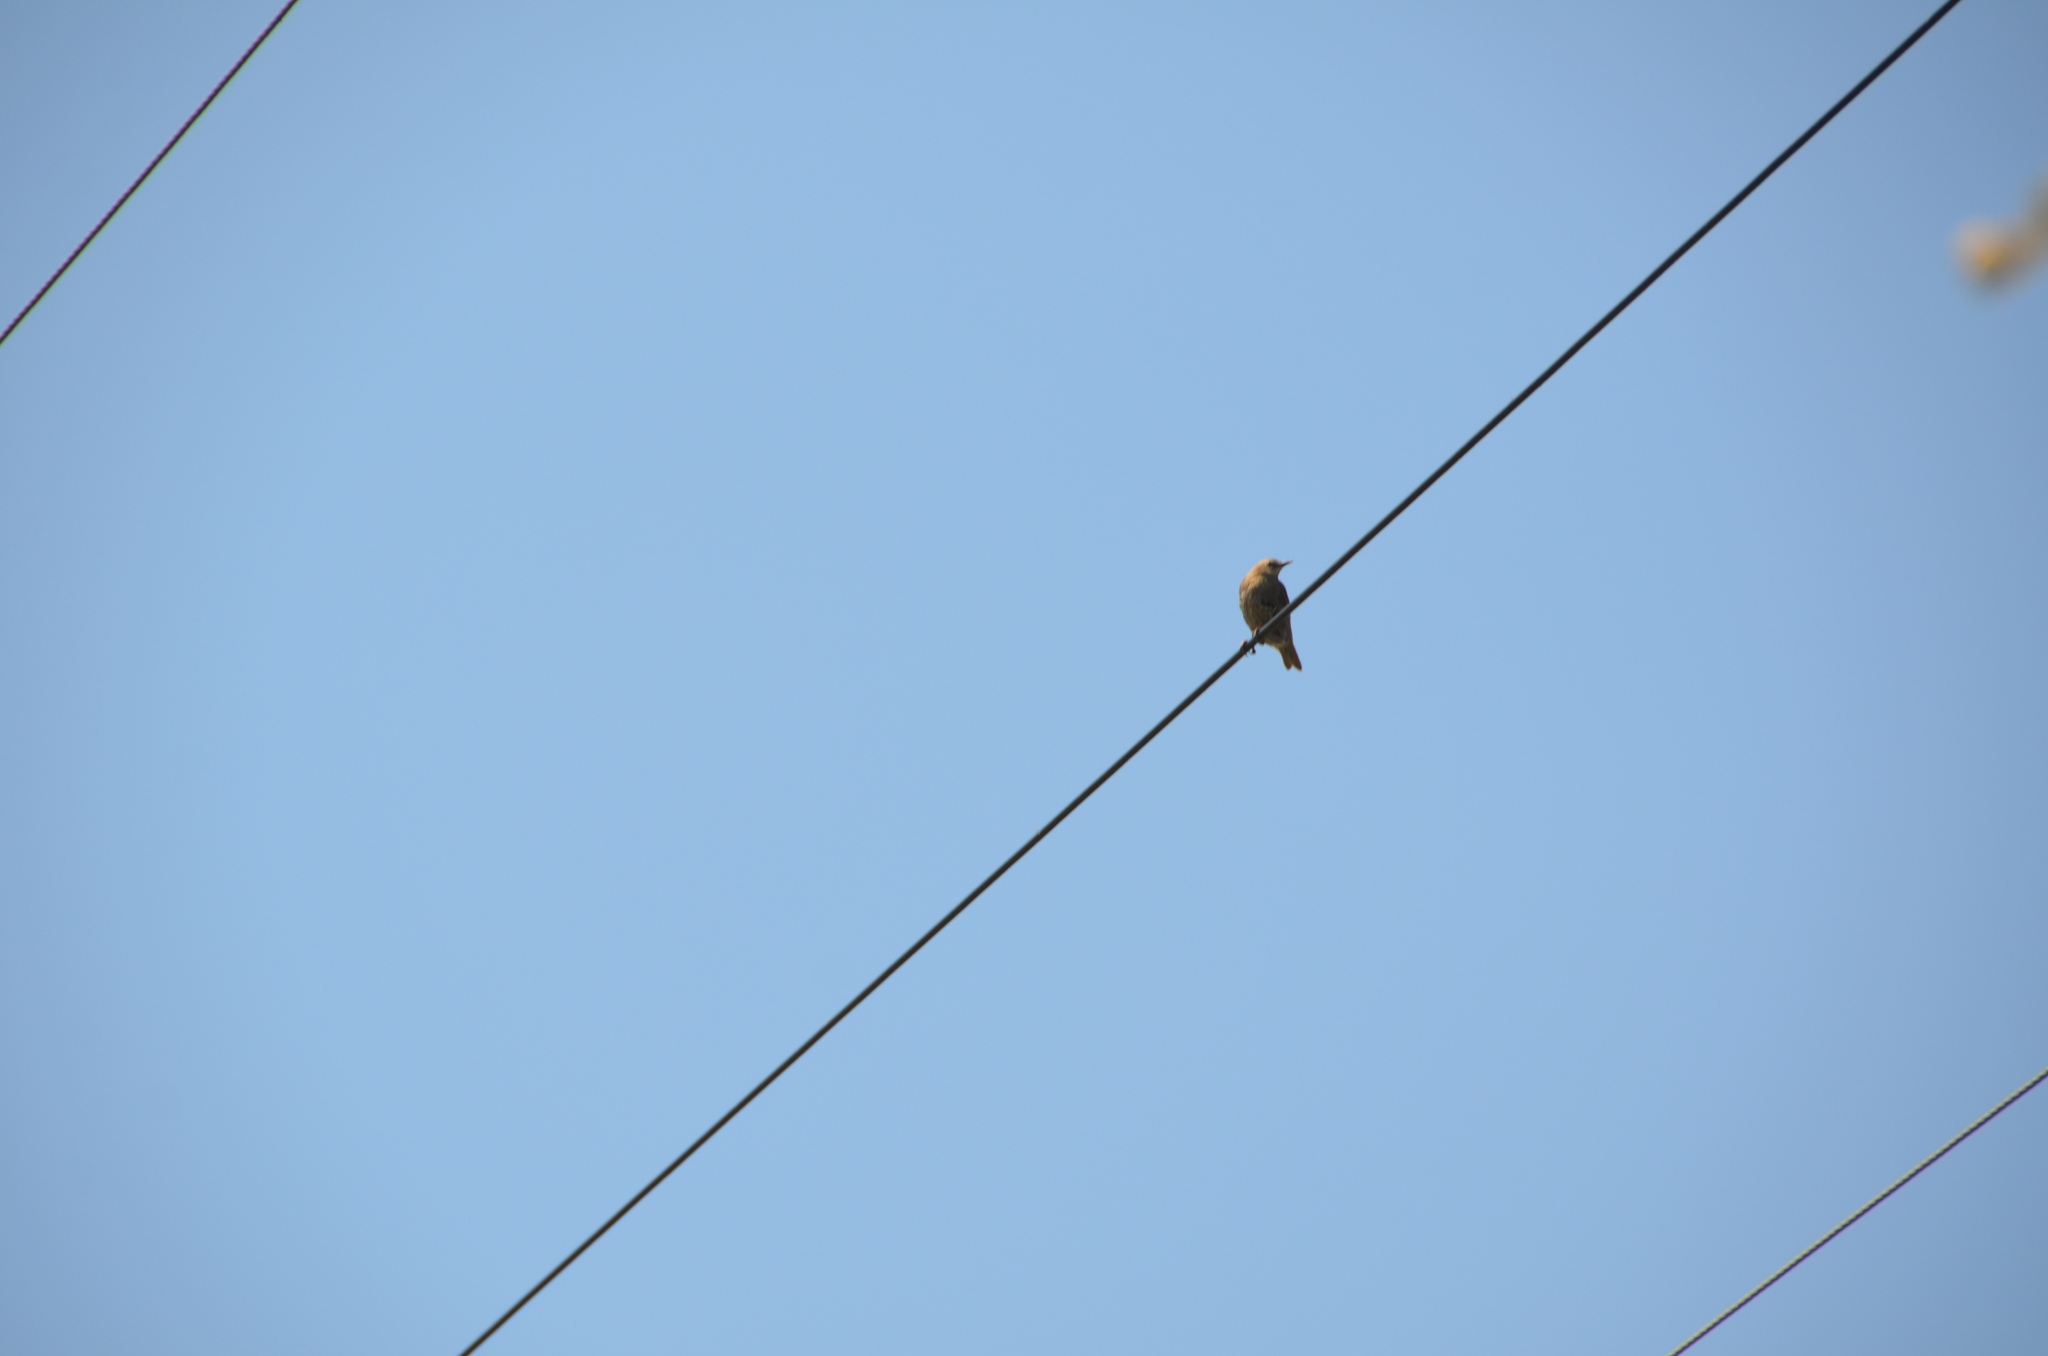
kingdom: Animalia
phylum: Chordata
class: Aves
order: Passeriformes
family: Sturnidae
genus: Sturnus
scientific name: Sturnus vulgaris
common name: Common starling
